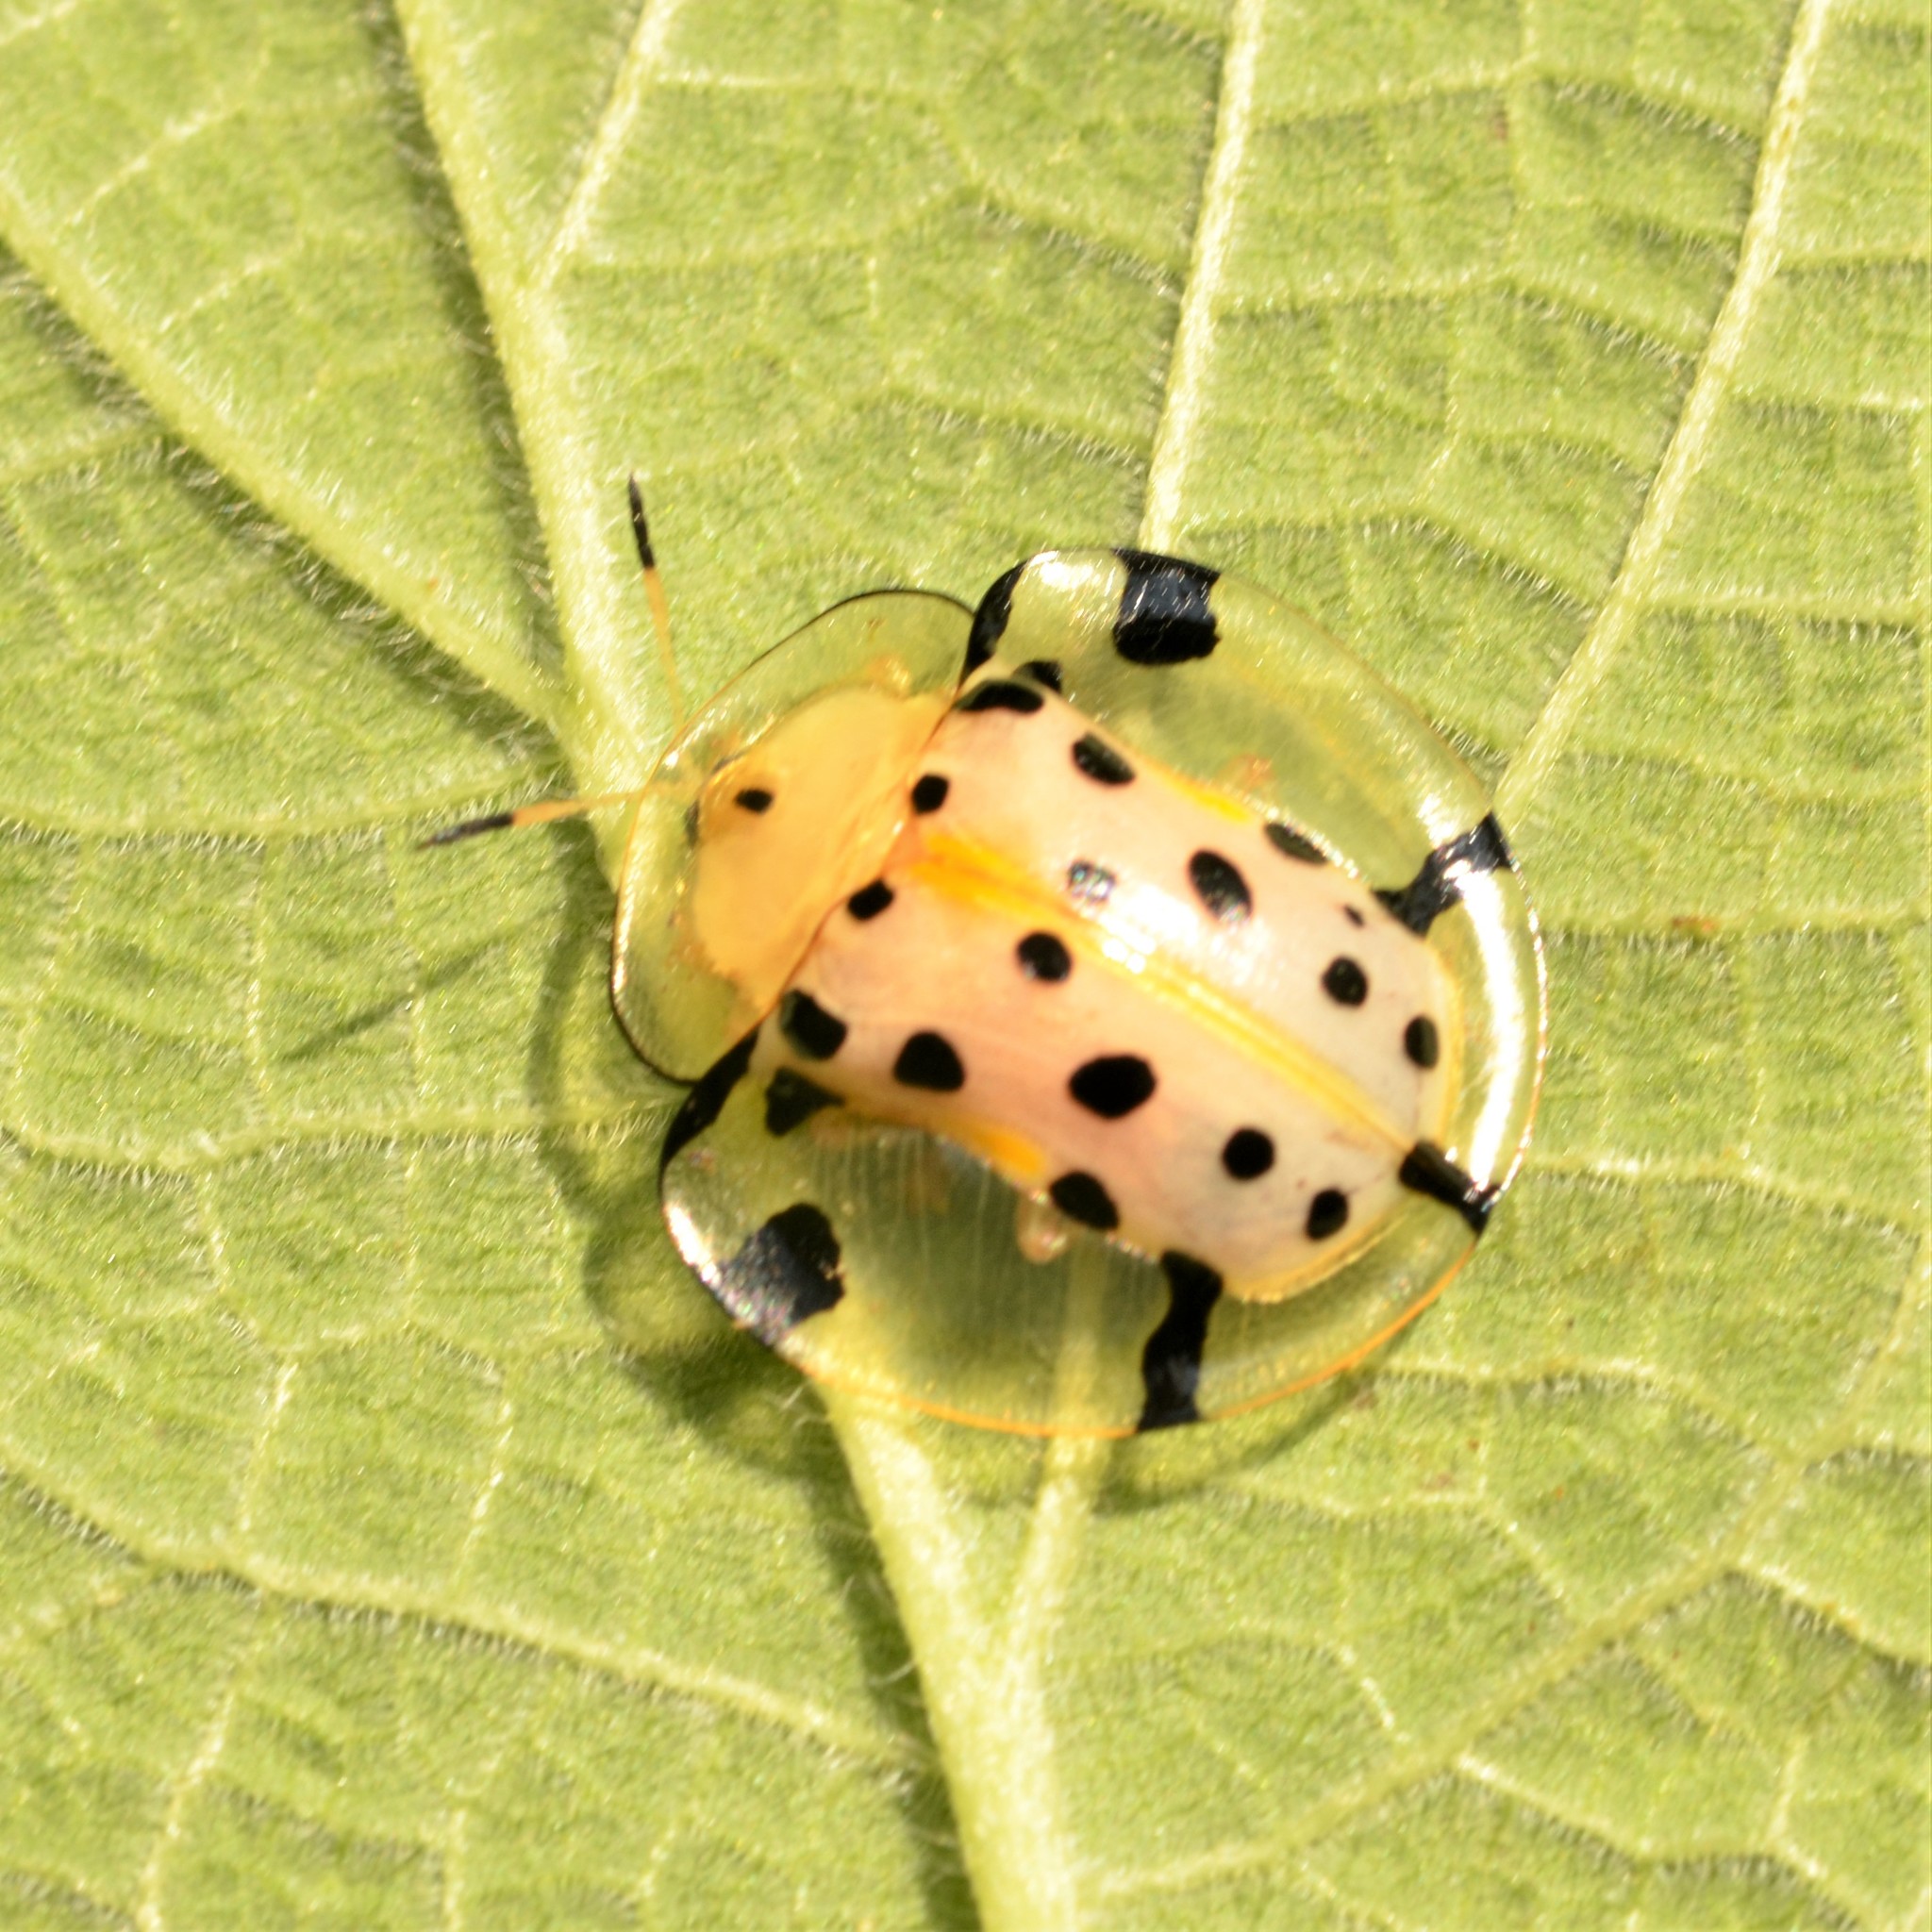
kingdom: Animalia
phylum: Arthropoda
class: Insecta
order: Coleoptera
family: Chrysomelidae
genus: Aspidimorpha
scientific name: Aspidimorpha miliaris
